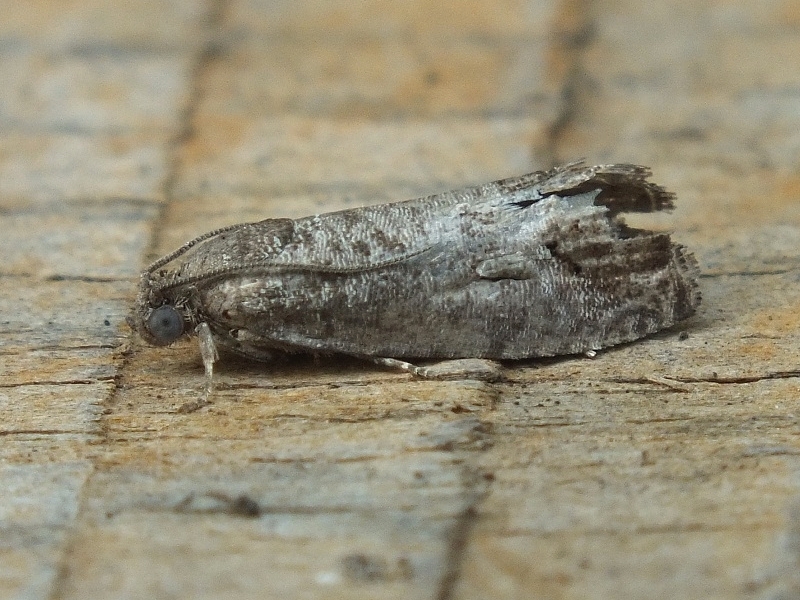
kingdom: Animalia
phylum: Arthropoda
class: Insecta
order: Lepidoptera
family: Tortricidae
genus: Cydia
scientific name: Cydia pomonella
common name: Codling moth
